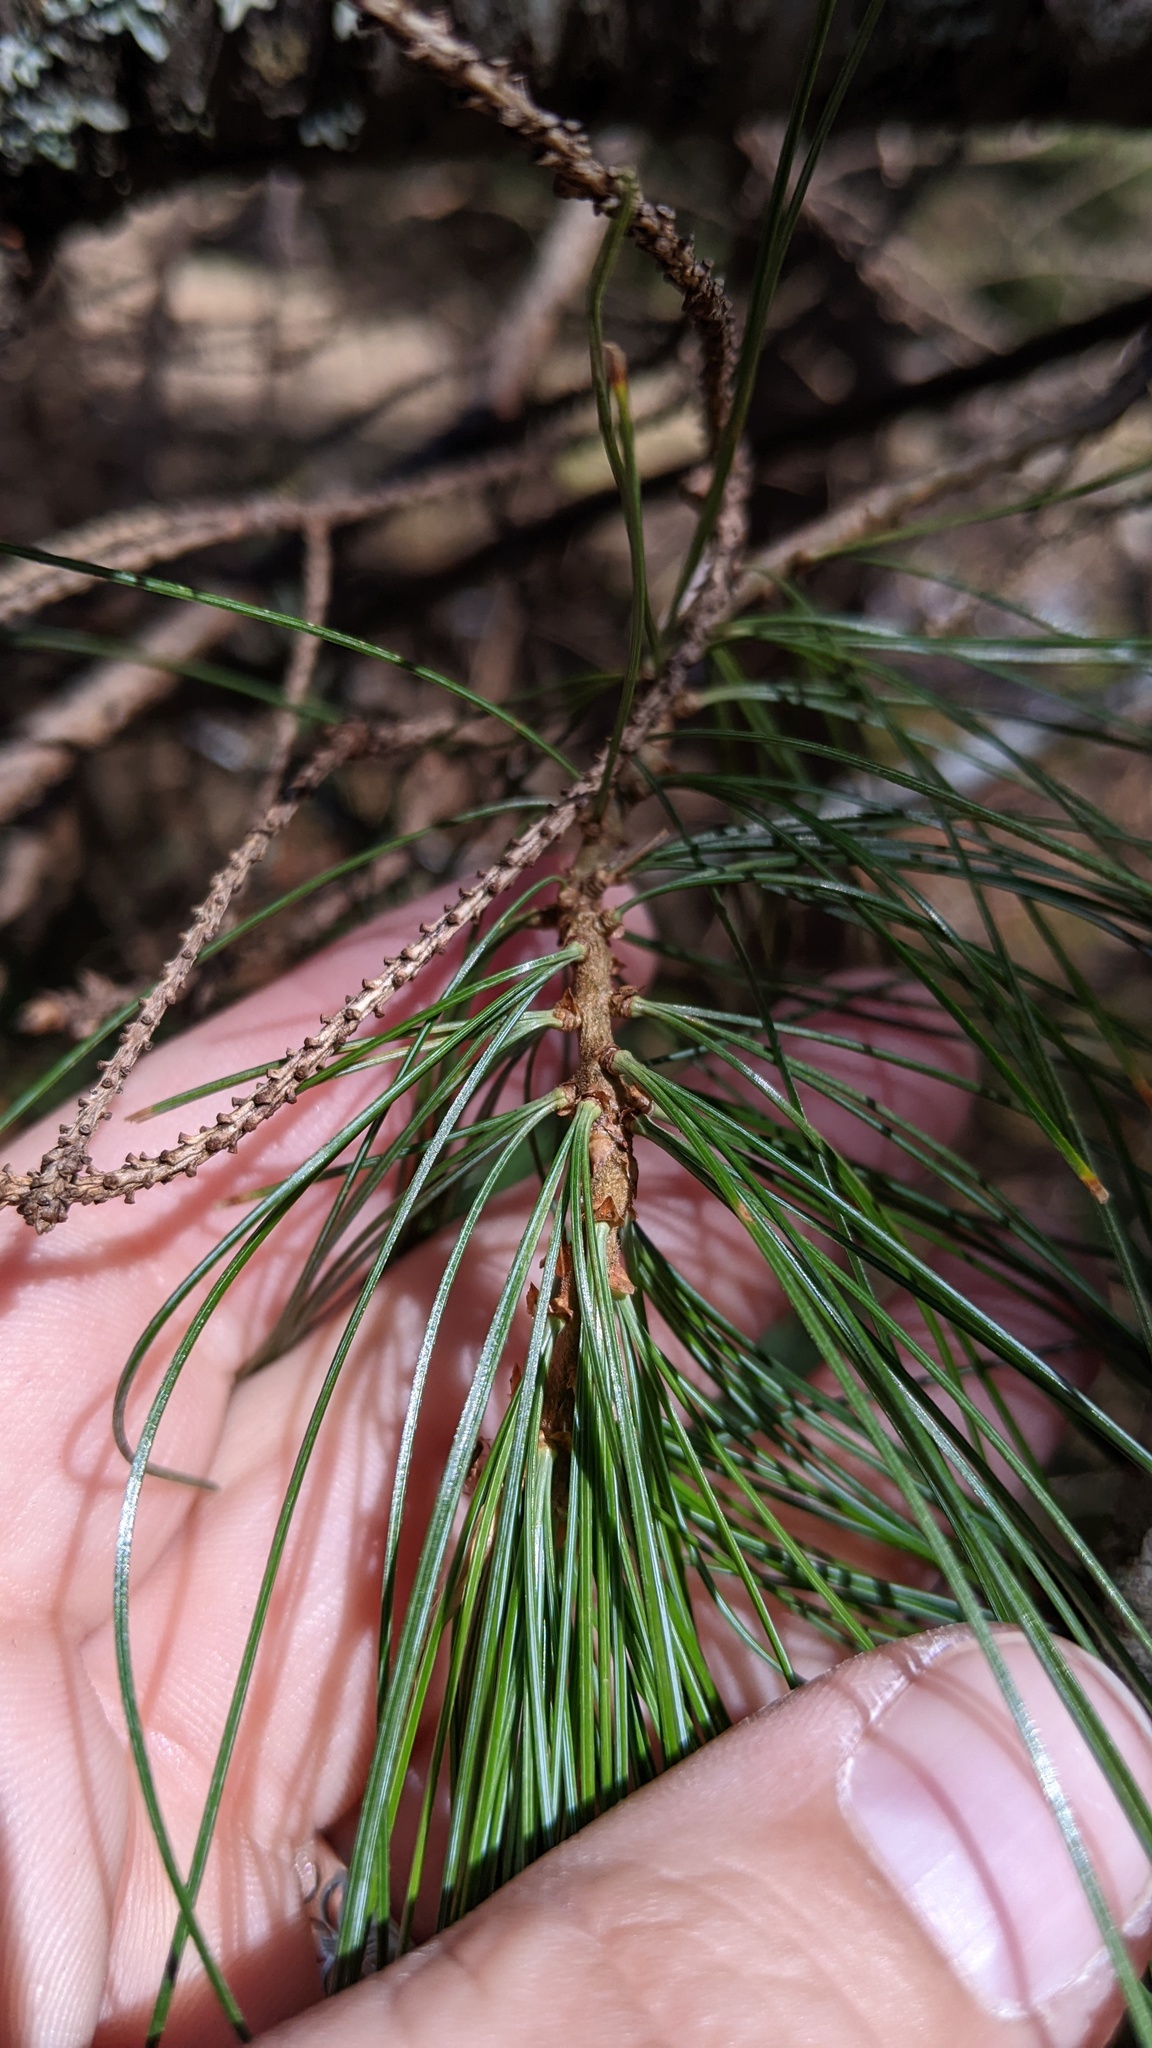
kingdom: Plantae
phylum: Tracheophyta
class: Pinopsida
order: Pinales
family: Pinaceae
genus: Pinus
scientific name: Pinus strobus
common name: Weymouth pine
